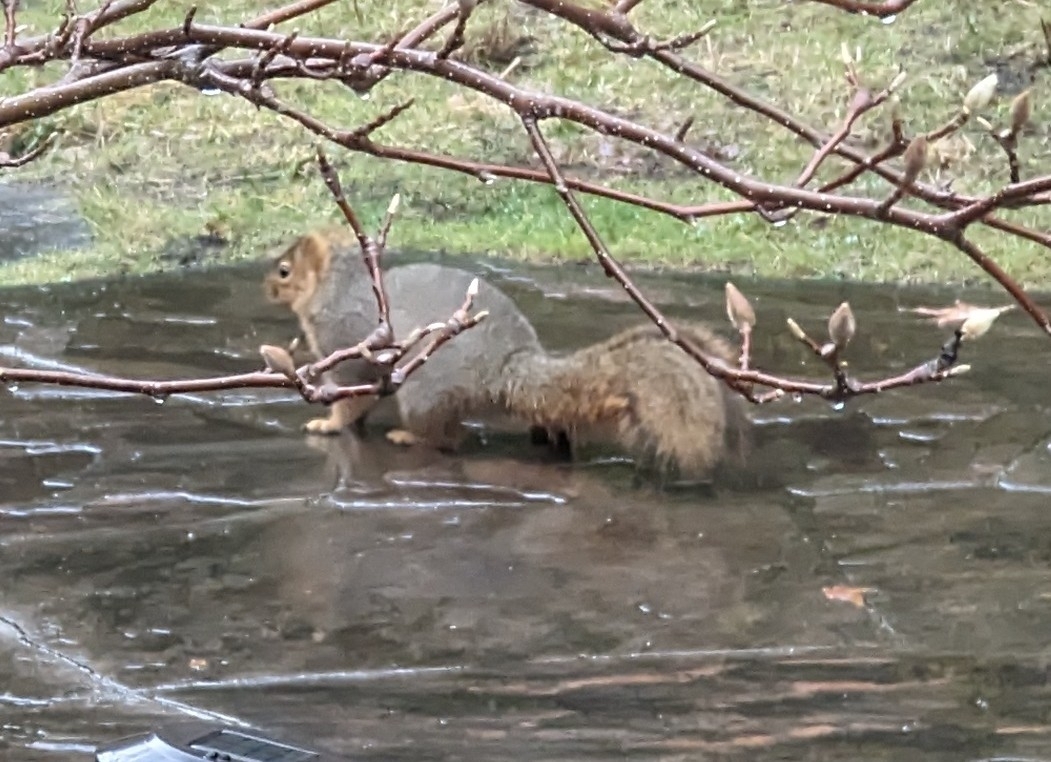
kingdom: Animalia
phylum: Chordata
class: Mammalia
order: Rodentia
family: Sciuridae
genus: Sciurus
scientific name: Sciurus niger
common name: Fox squirrel
